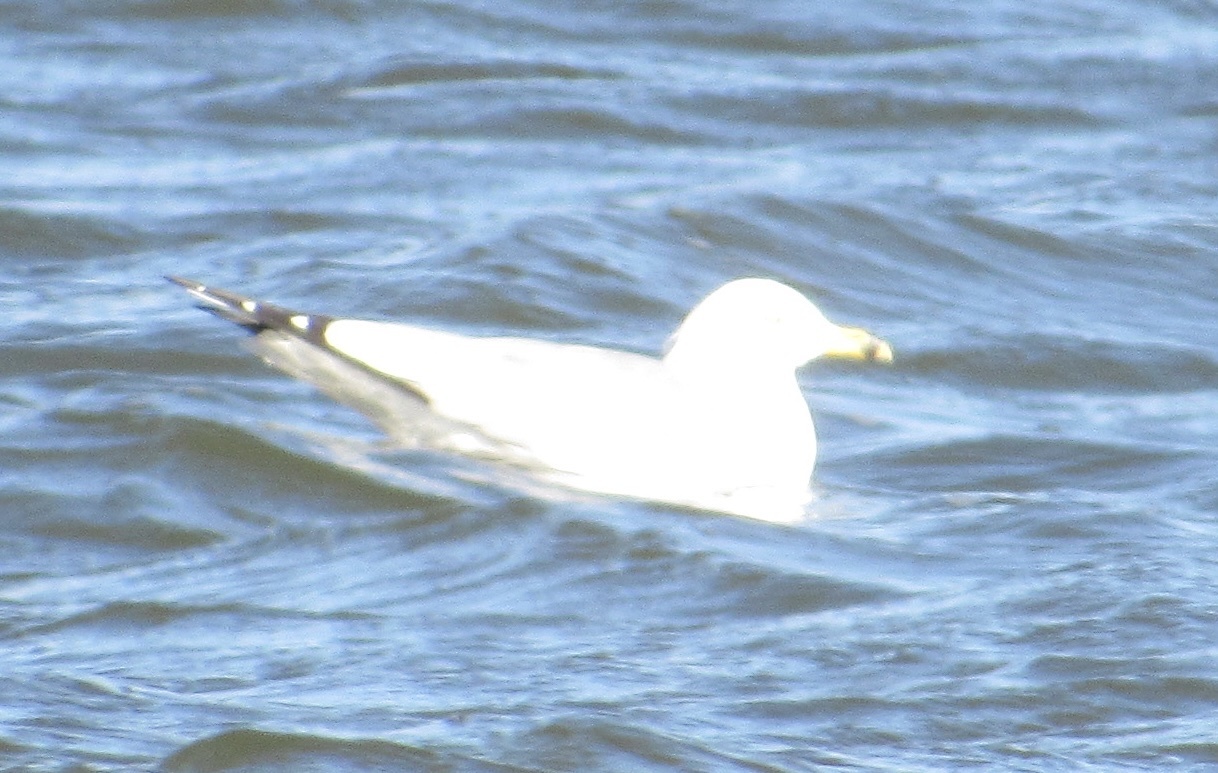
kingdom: Animalia
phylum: Chordata
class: Aves
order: Charadriiformes
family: Laridae
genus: Larus
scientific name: Larus delawarensis
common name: Ring-billed gull
